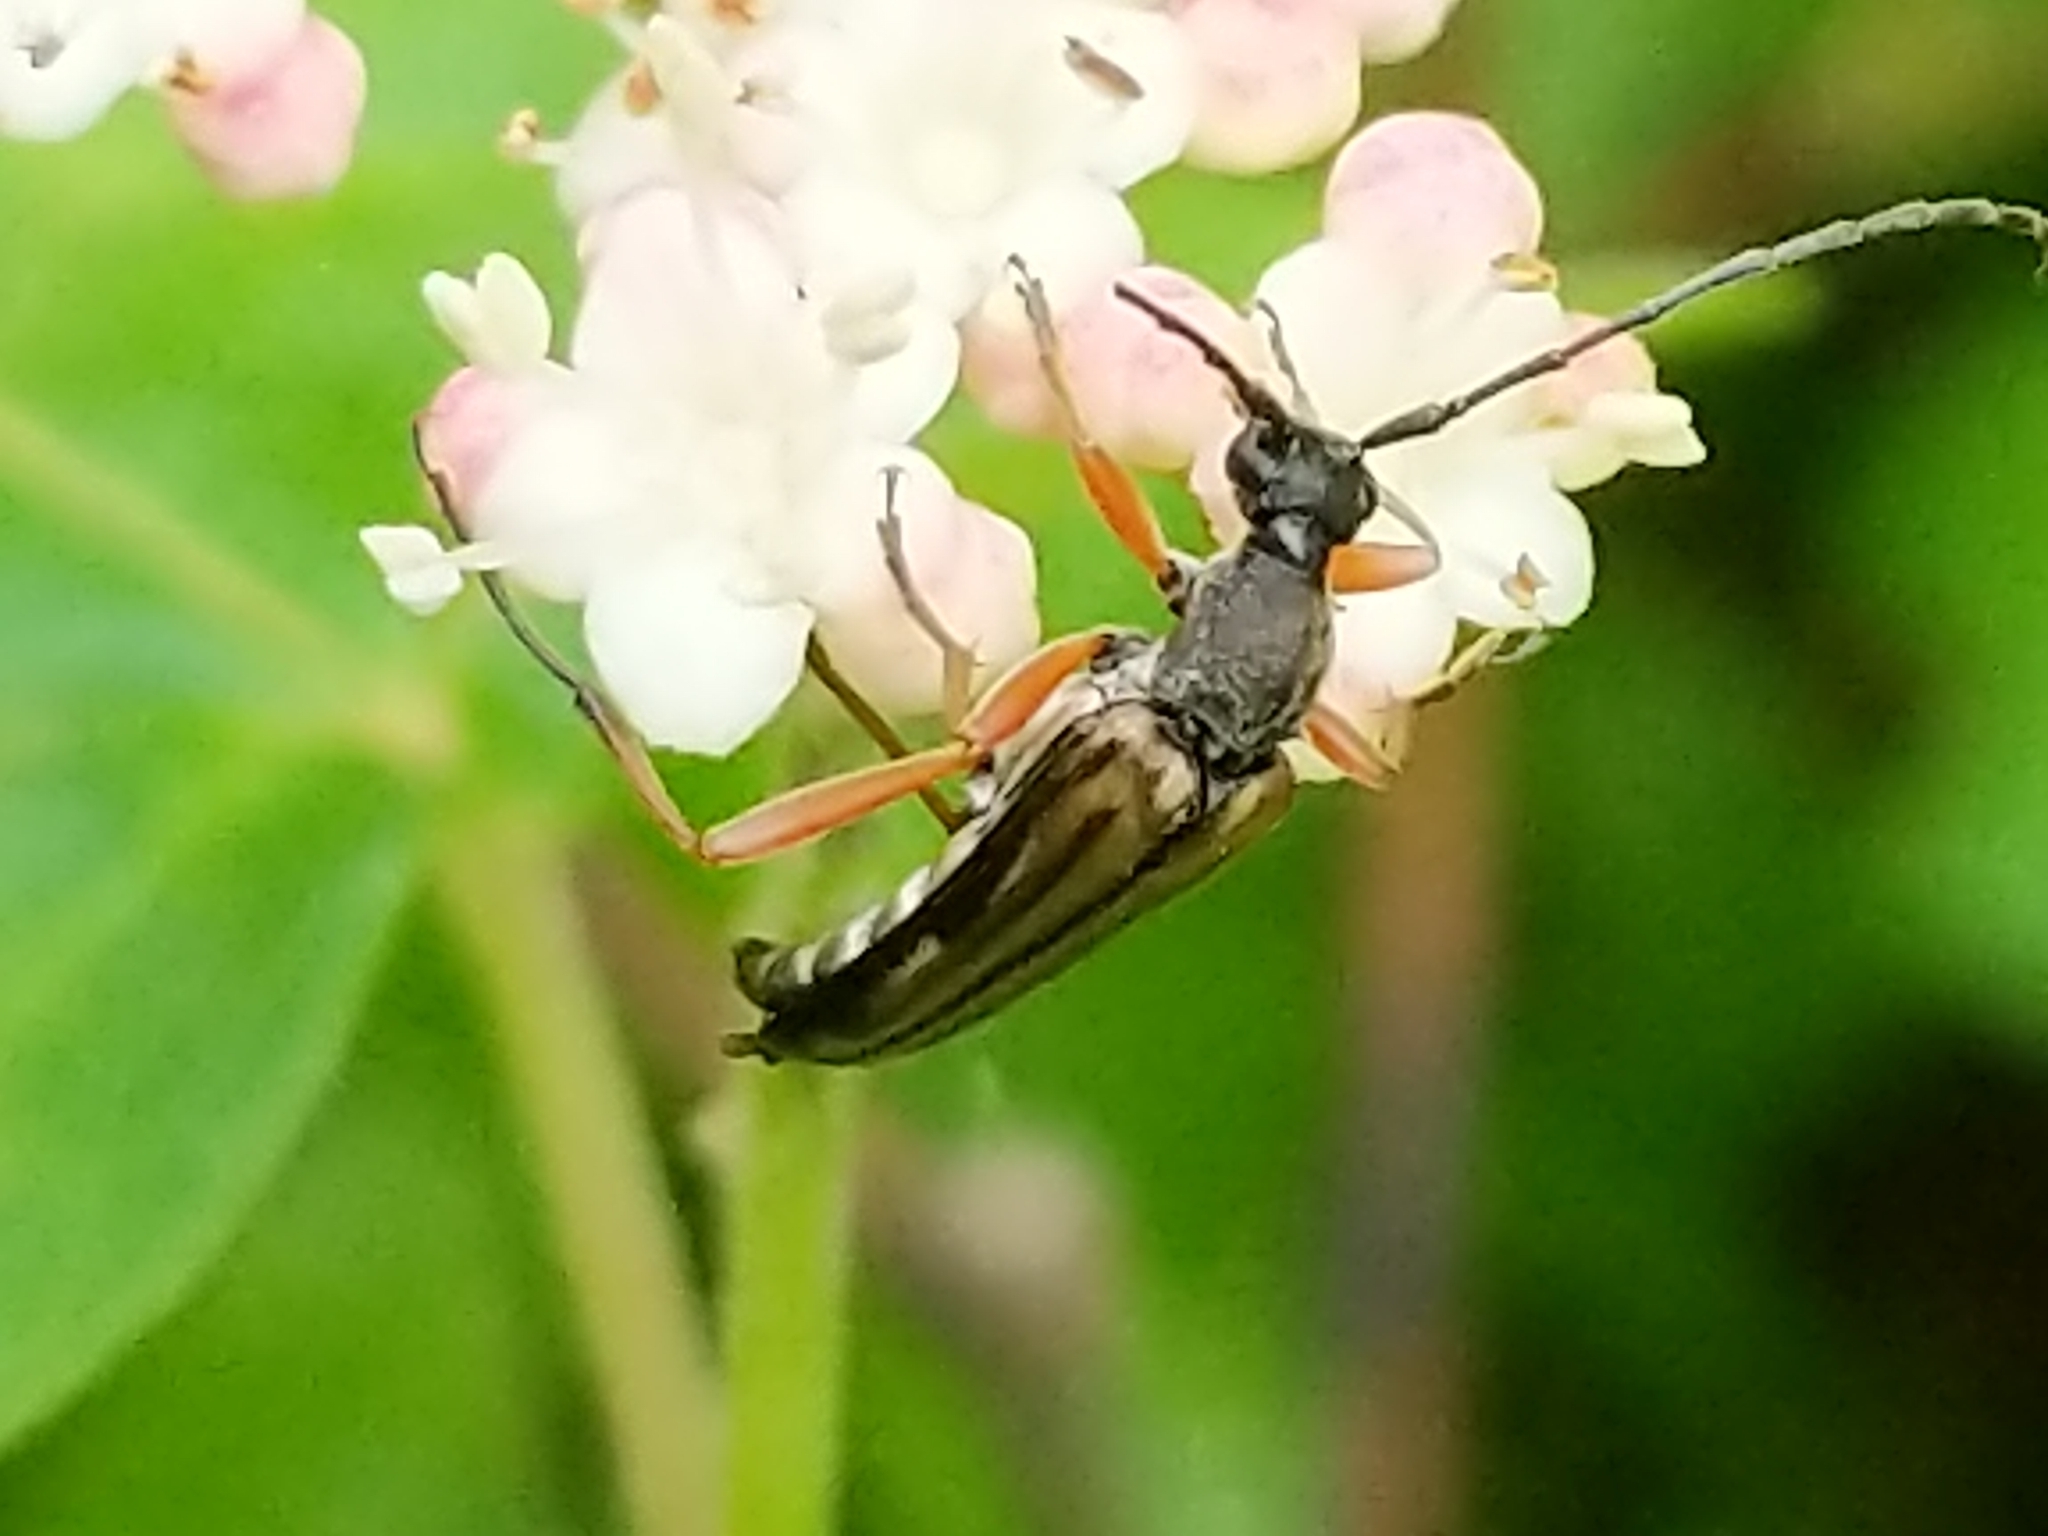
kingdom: Animalia
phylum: Arthropoda
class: Insecta
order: Coleoptera
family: Cerambycidae
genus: Analeptura
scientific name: Analeptura lineola
